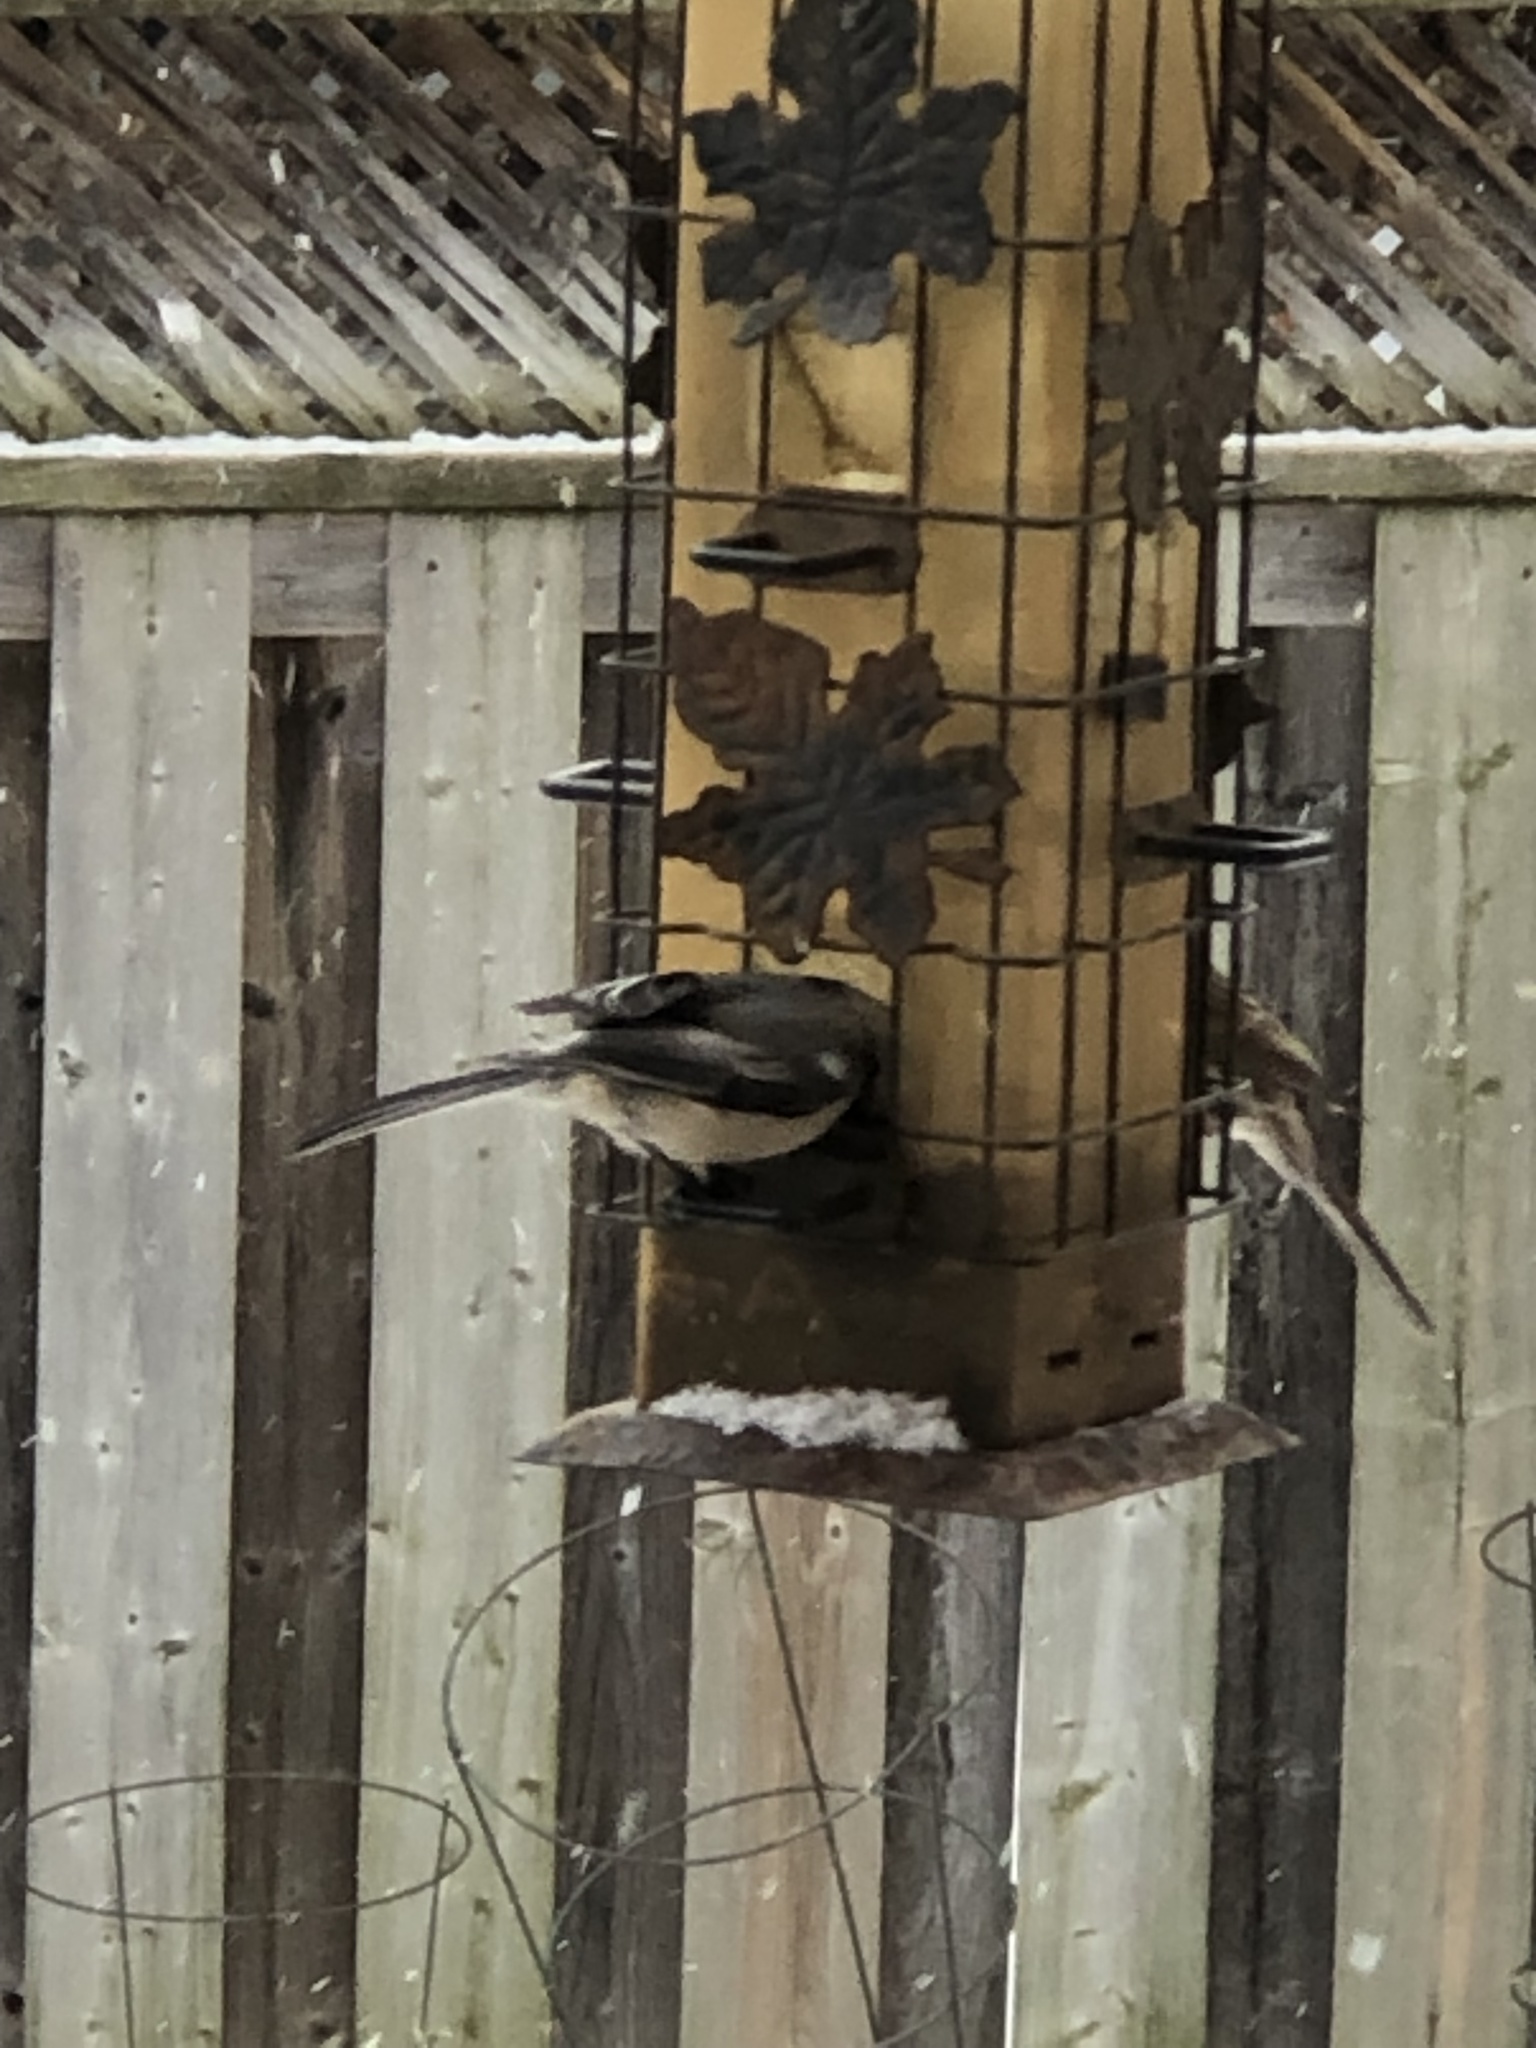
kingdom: Animalia
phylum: Chordata
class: Aves
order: Passeriformes
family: Paridae
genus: Poecile
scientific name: Poecile atricapillus
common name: Black-capped chickadee
